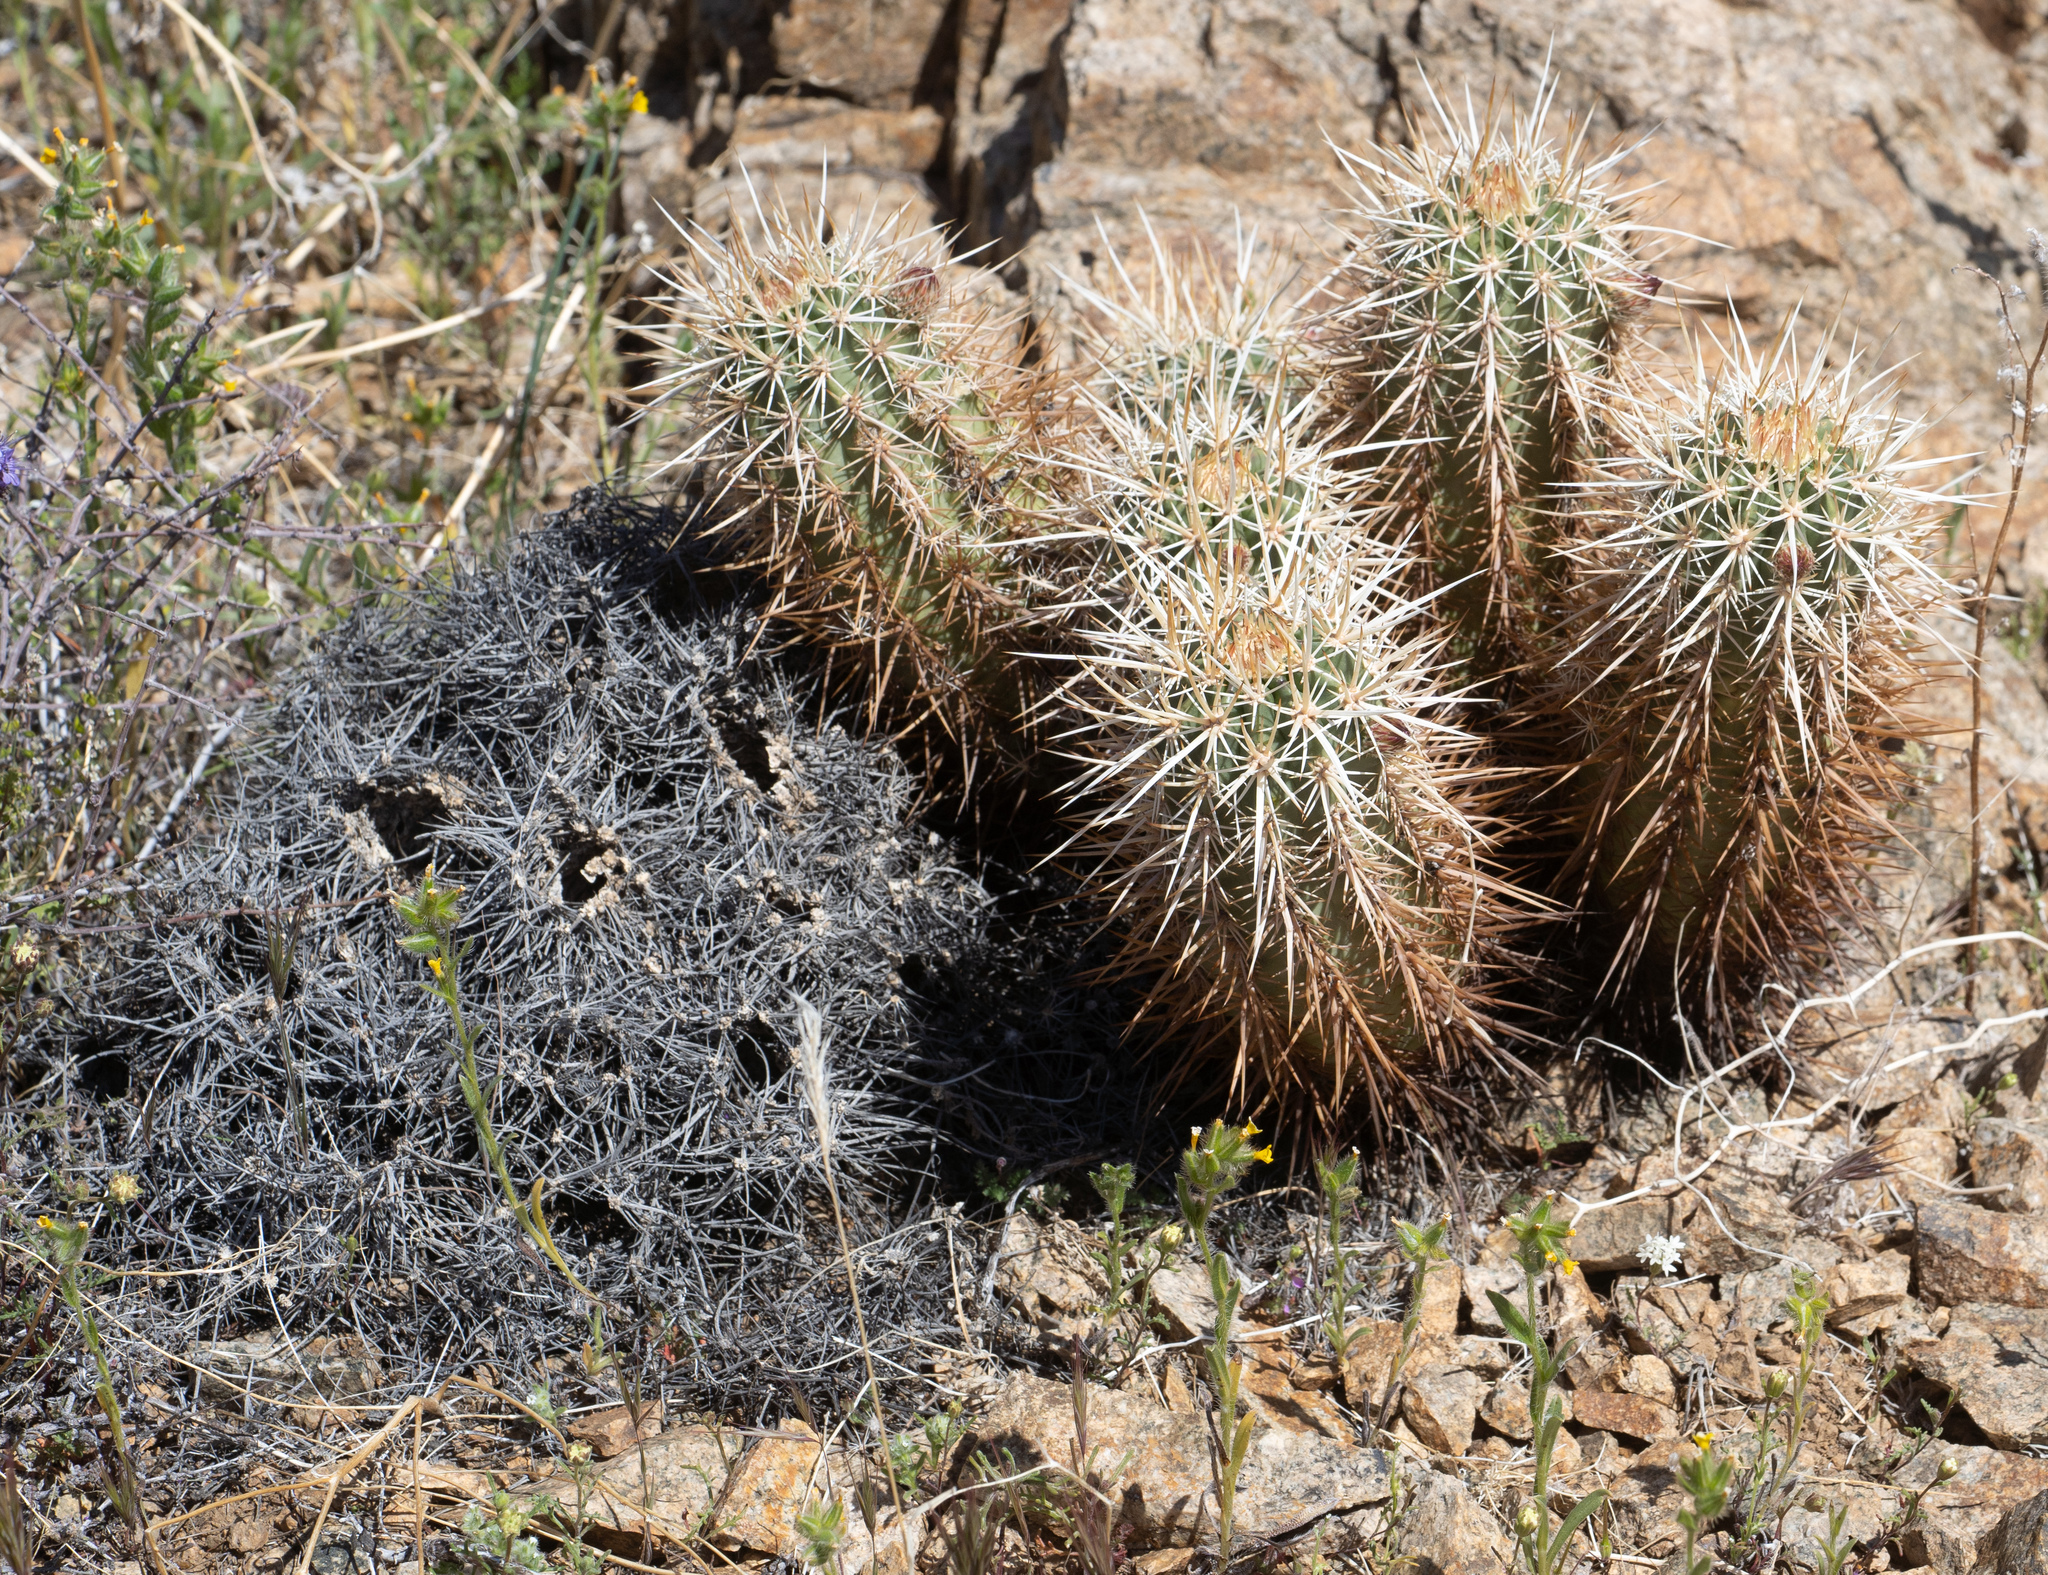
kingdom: Plantae
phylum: Tracheophyta
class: Magnoliopsida
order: Caryophyllales
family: Cactaceae
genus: Echinocereus
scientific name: Echinocereus engelmannii
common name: Engelmann's hedgehog cactus
